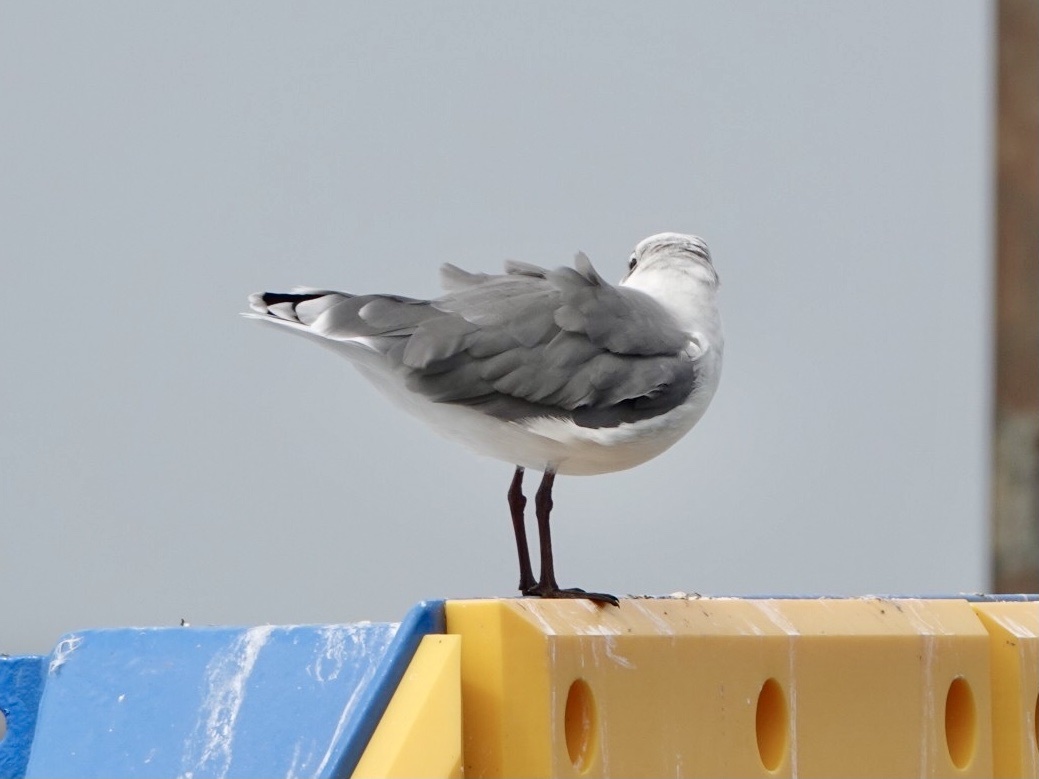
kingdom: Animalia
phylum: Chordata
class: Aves
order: Charadriiformes
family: Laridae
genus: Leucophaeus
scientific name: Leucophaeus atricilla
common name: Laughing gull
